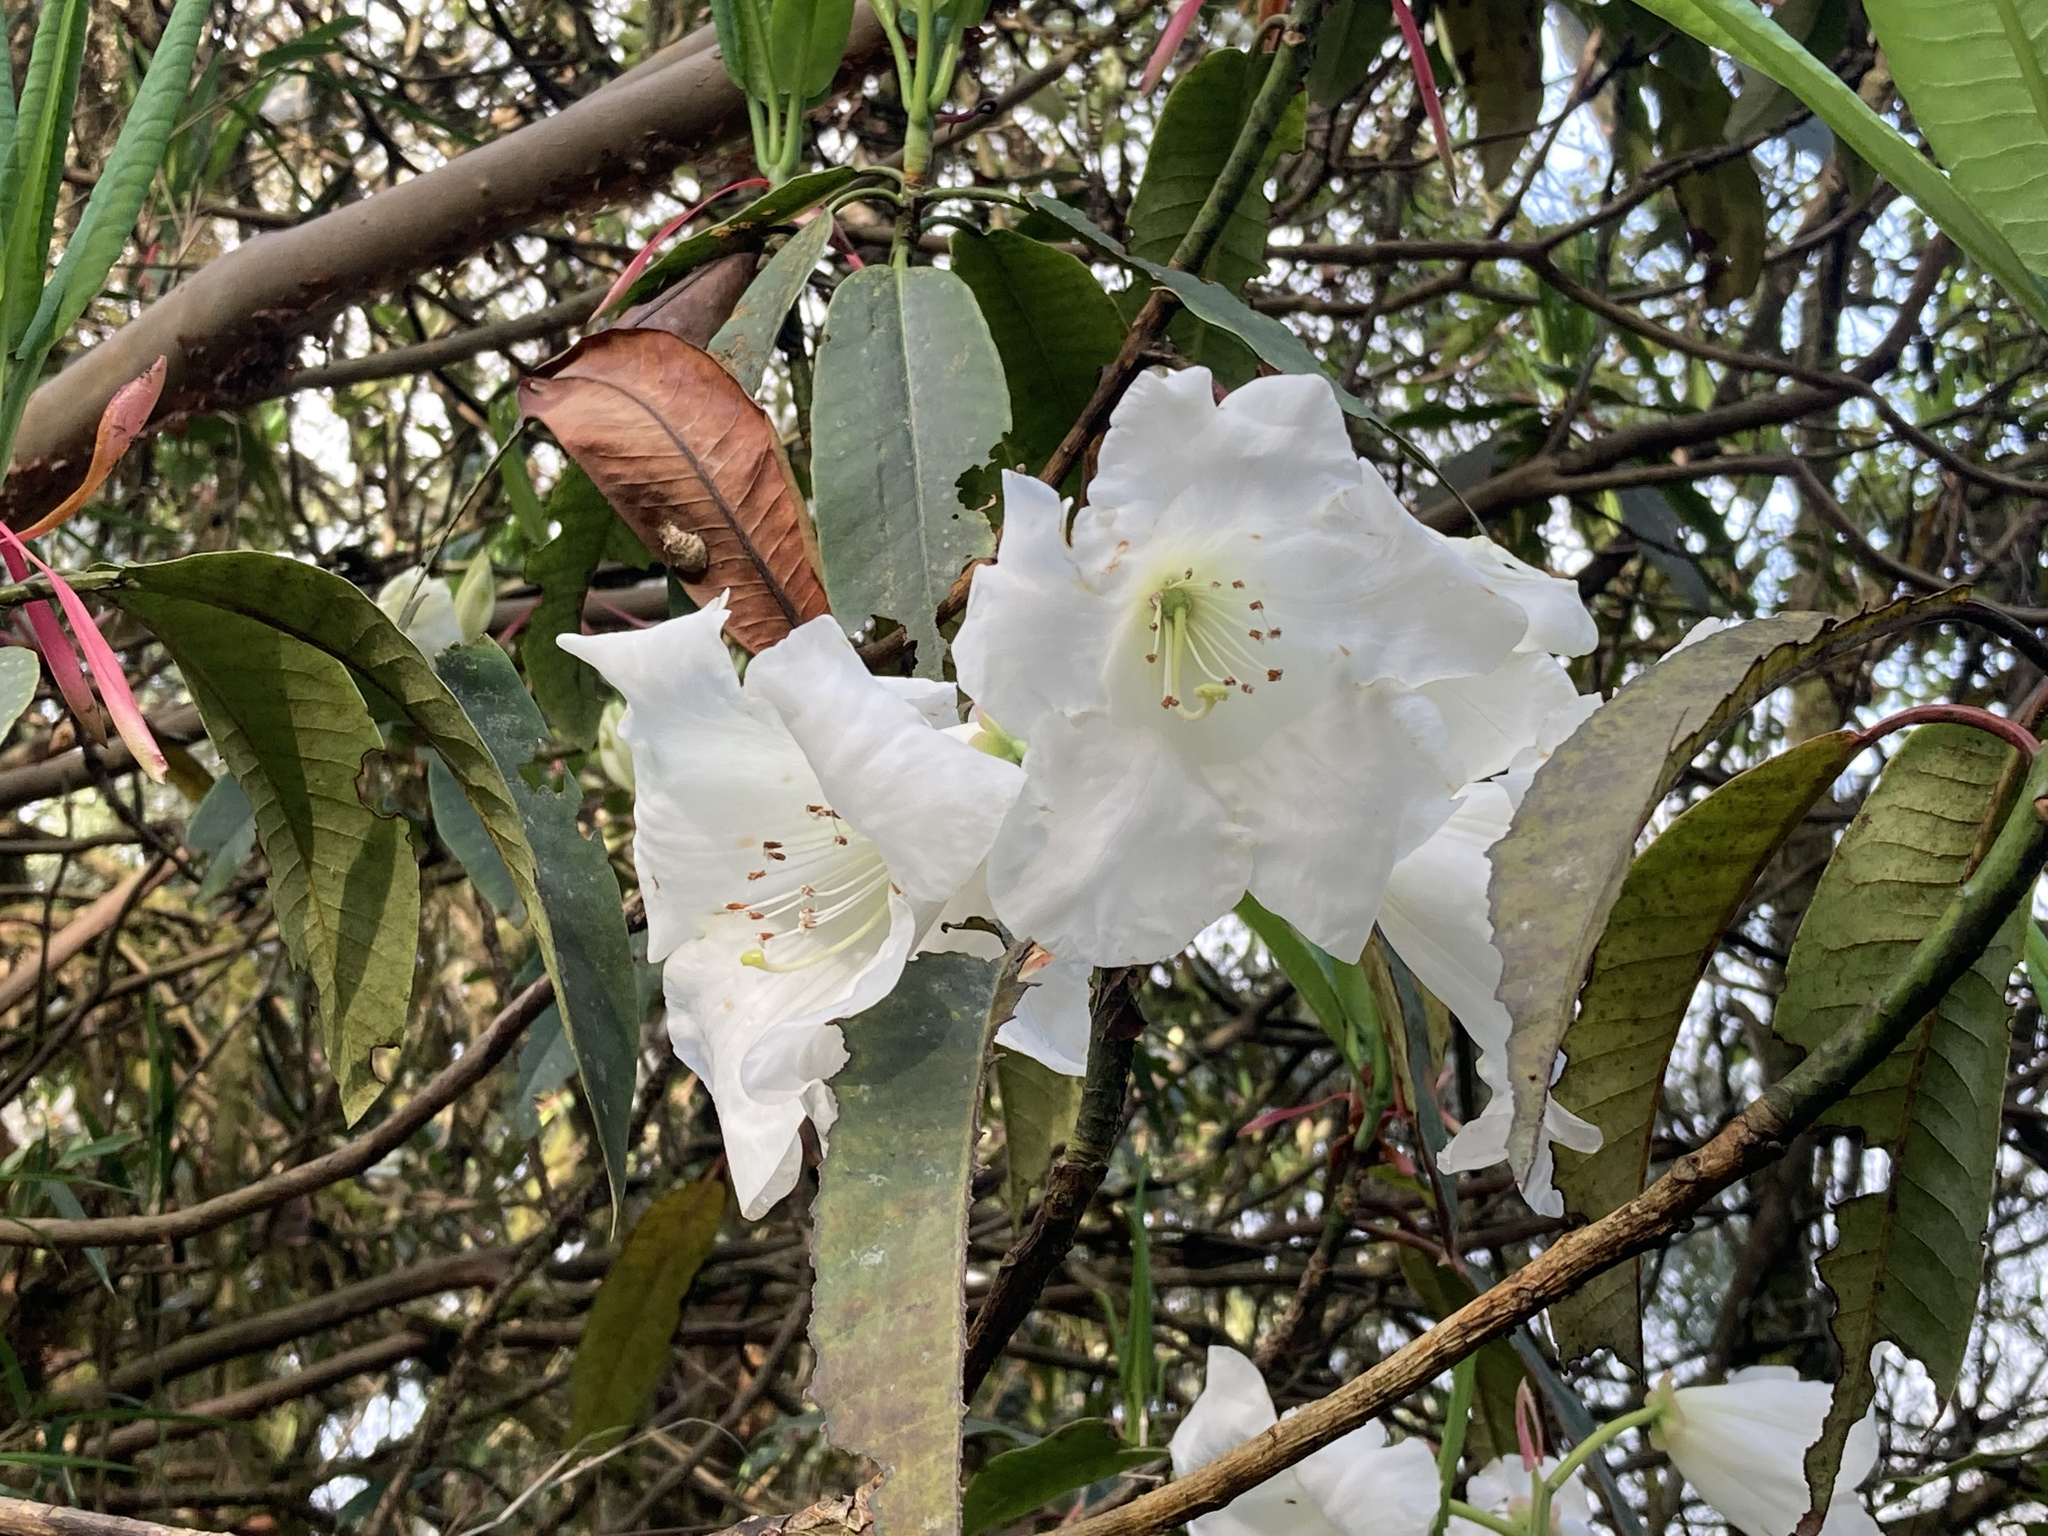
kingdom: Plantae
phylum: Tracheophyta
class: Magnoliopsida
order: Ericales
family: Ericaceae
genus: Rhododendron
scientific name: Rhododendron griffithianum
